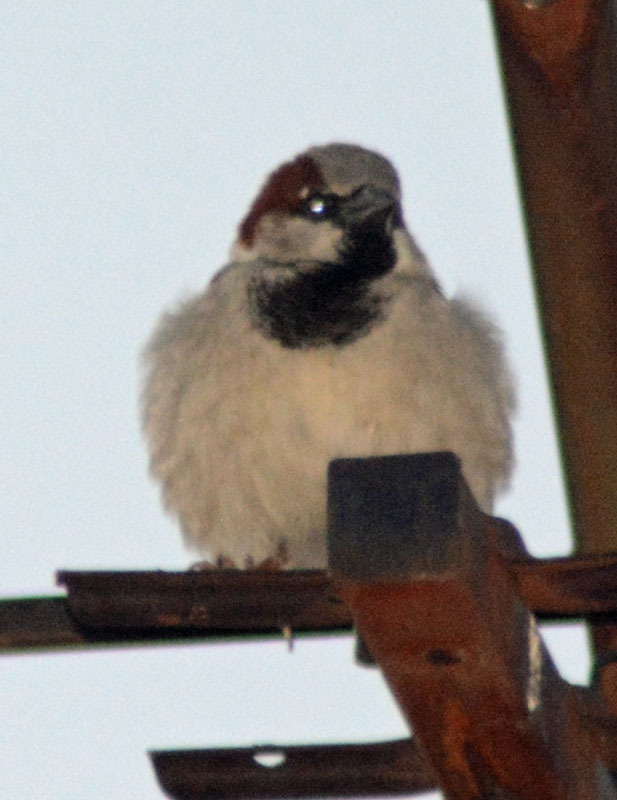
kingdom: Animalia
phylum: Chordata
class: Aves
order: Passeriformes
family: Passeridae
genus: Passer
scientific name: Passer domesticus
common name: House sparrow
